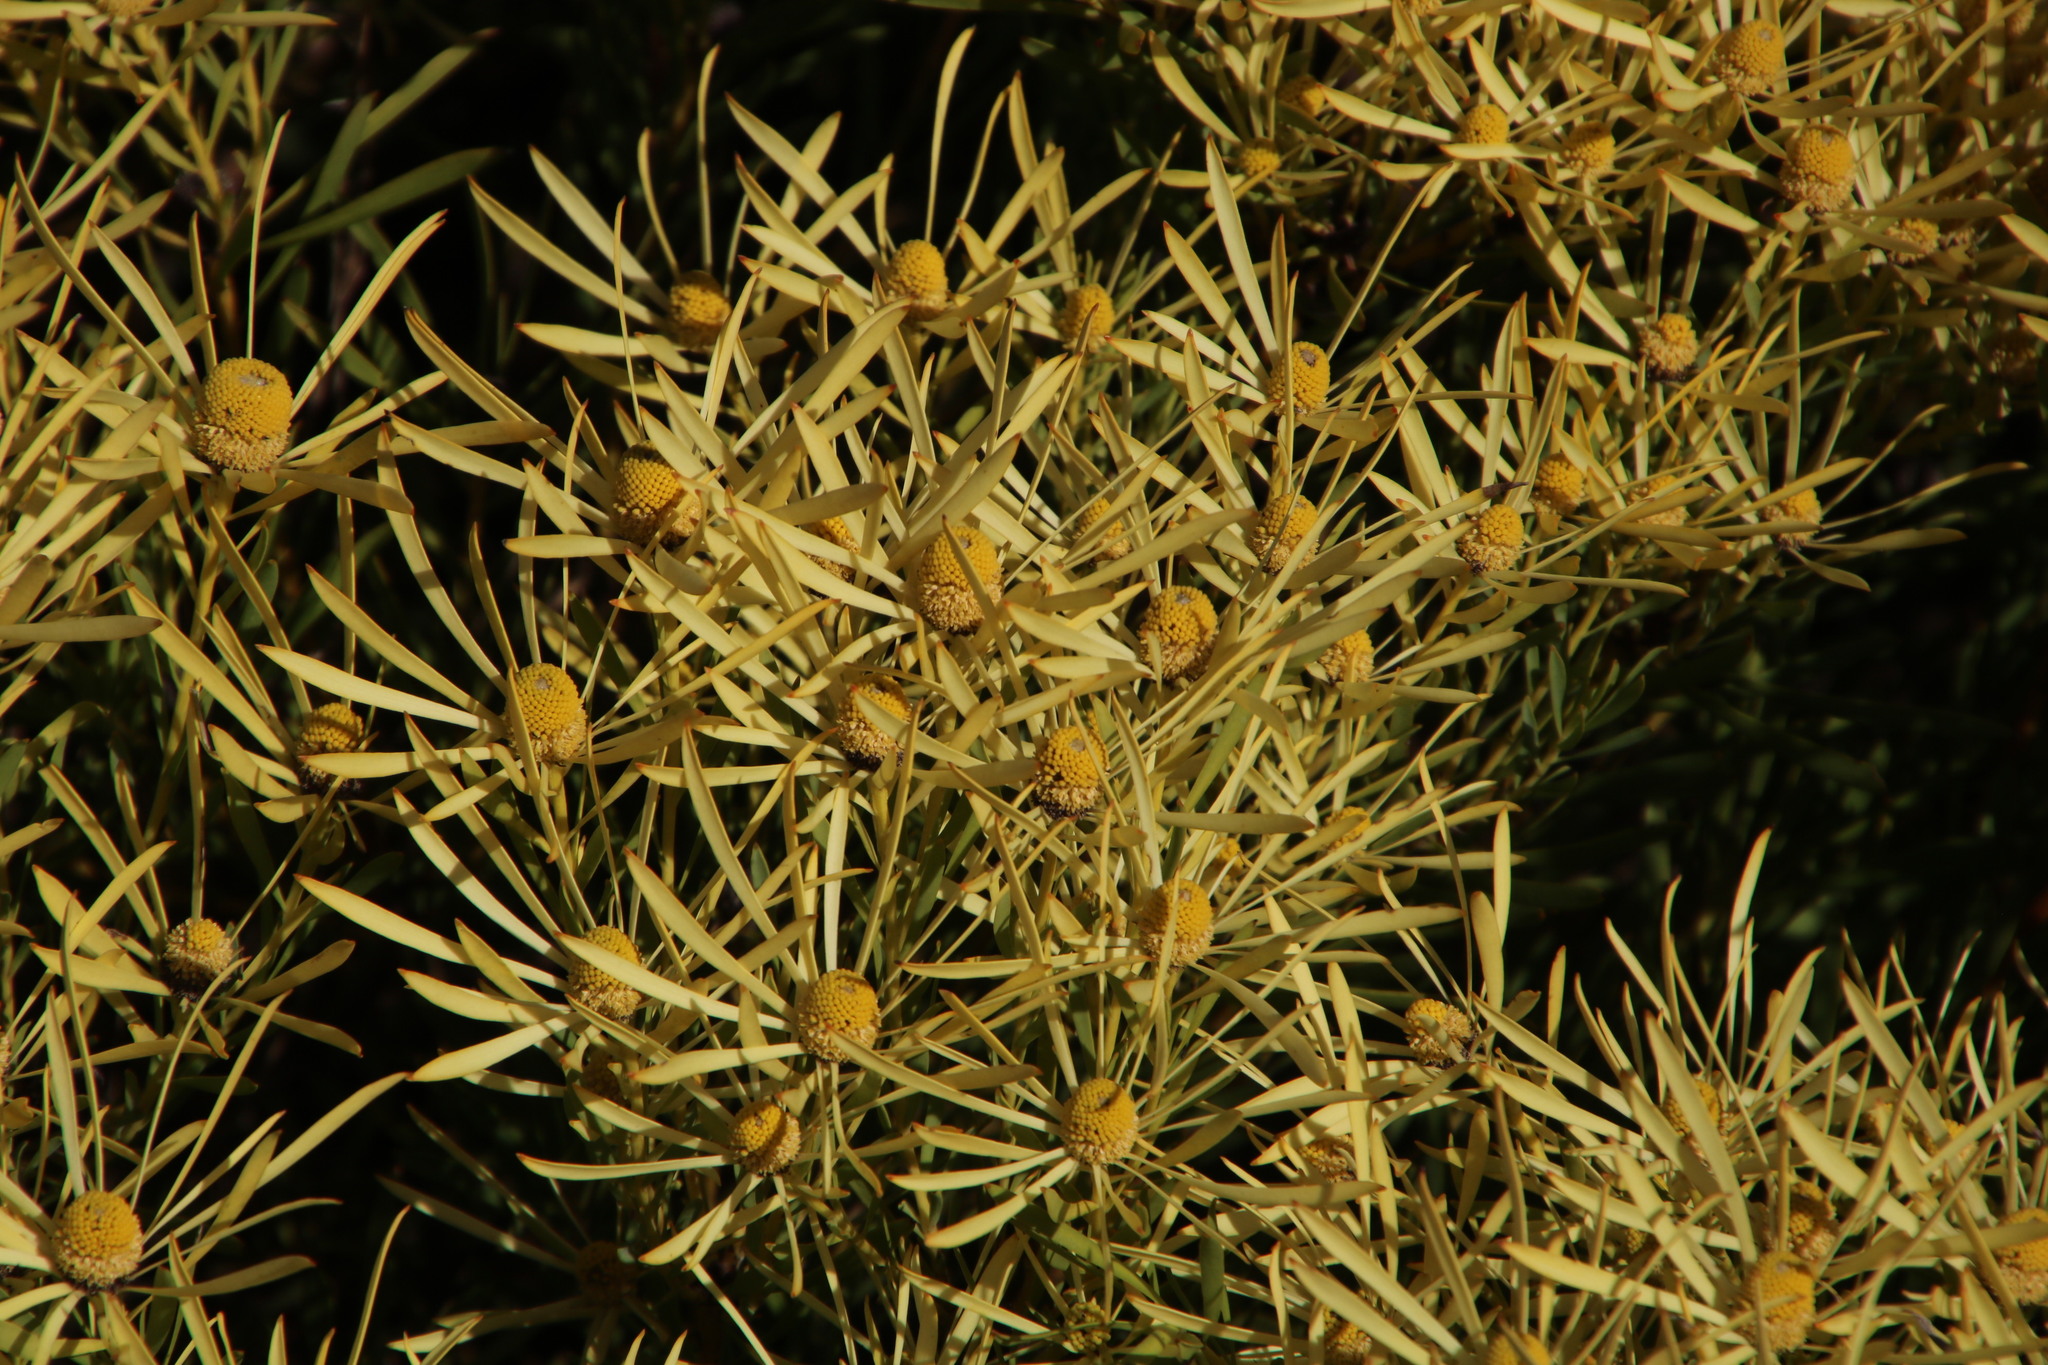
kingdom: Plantae
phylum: Tracheophyta
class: Magnoliopsida
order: Proteales
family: Proteaceae
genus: Leucadendron
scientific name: Leucadendron salignum
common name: Common sunshine conebush
